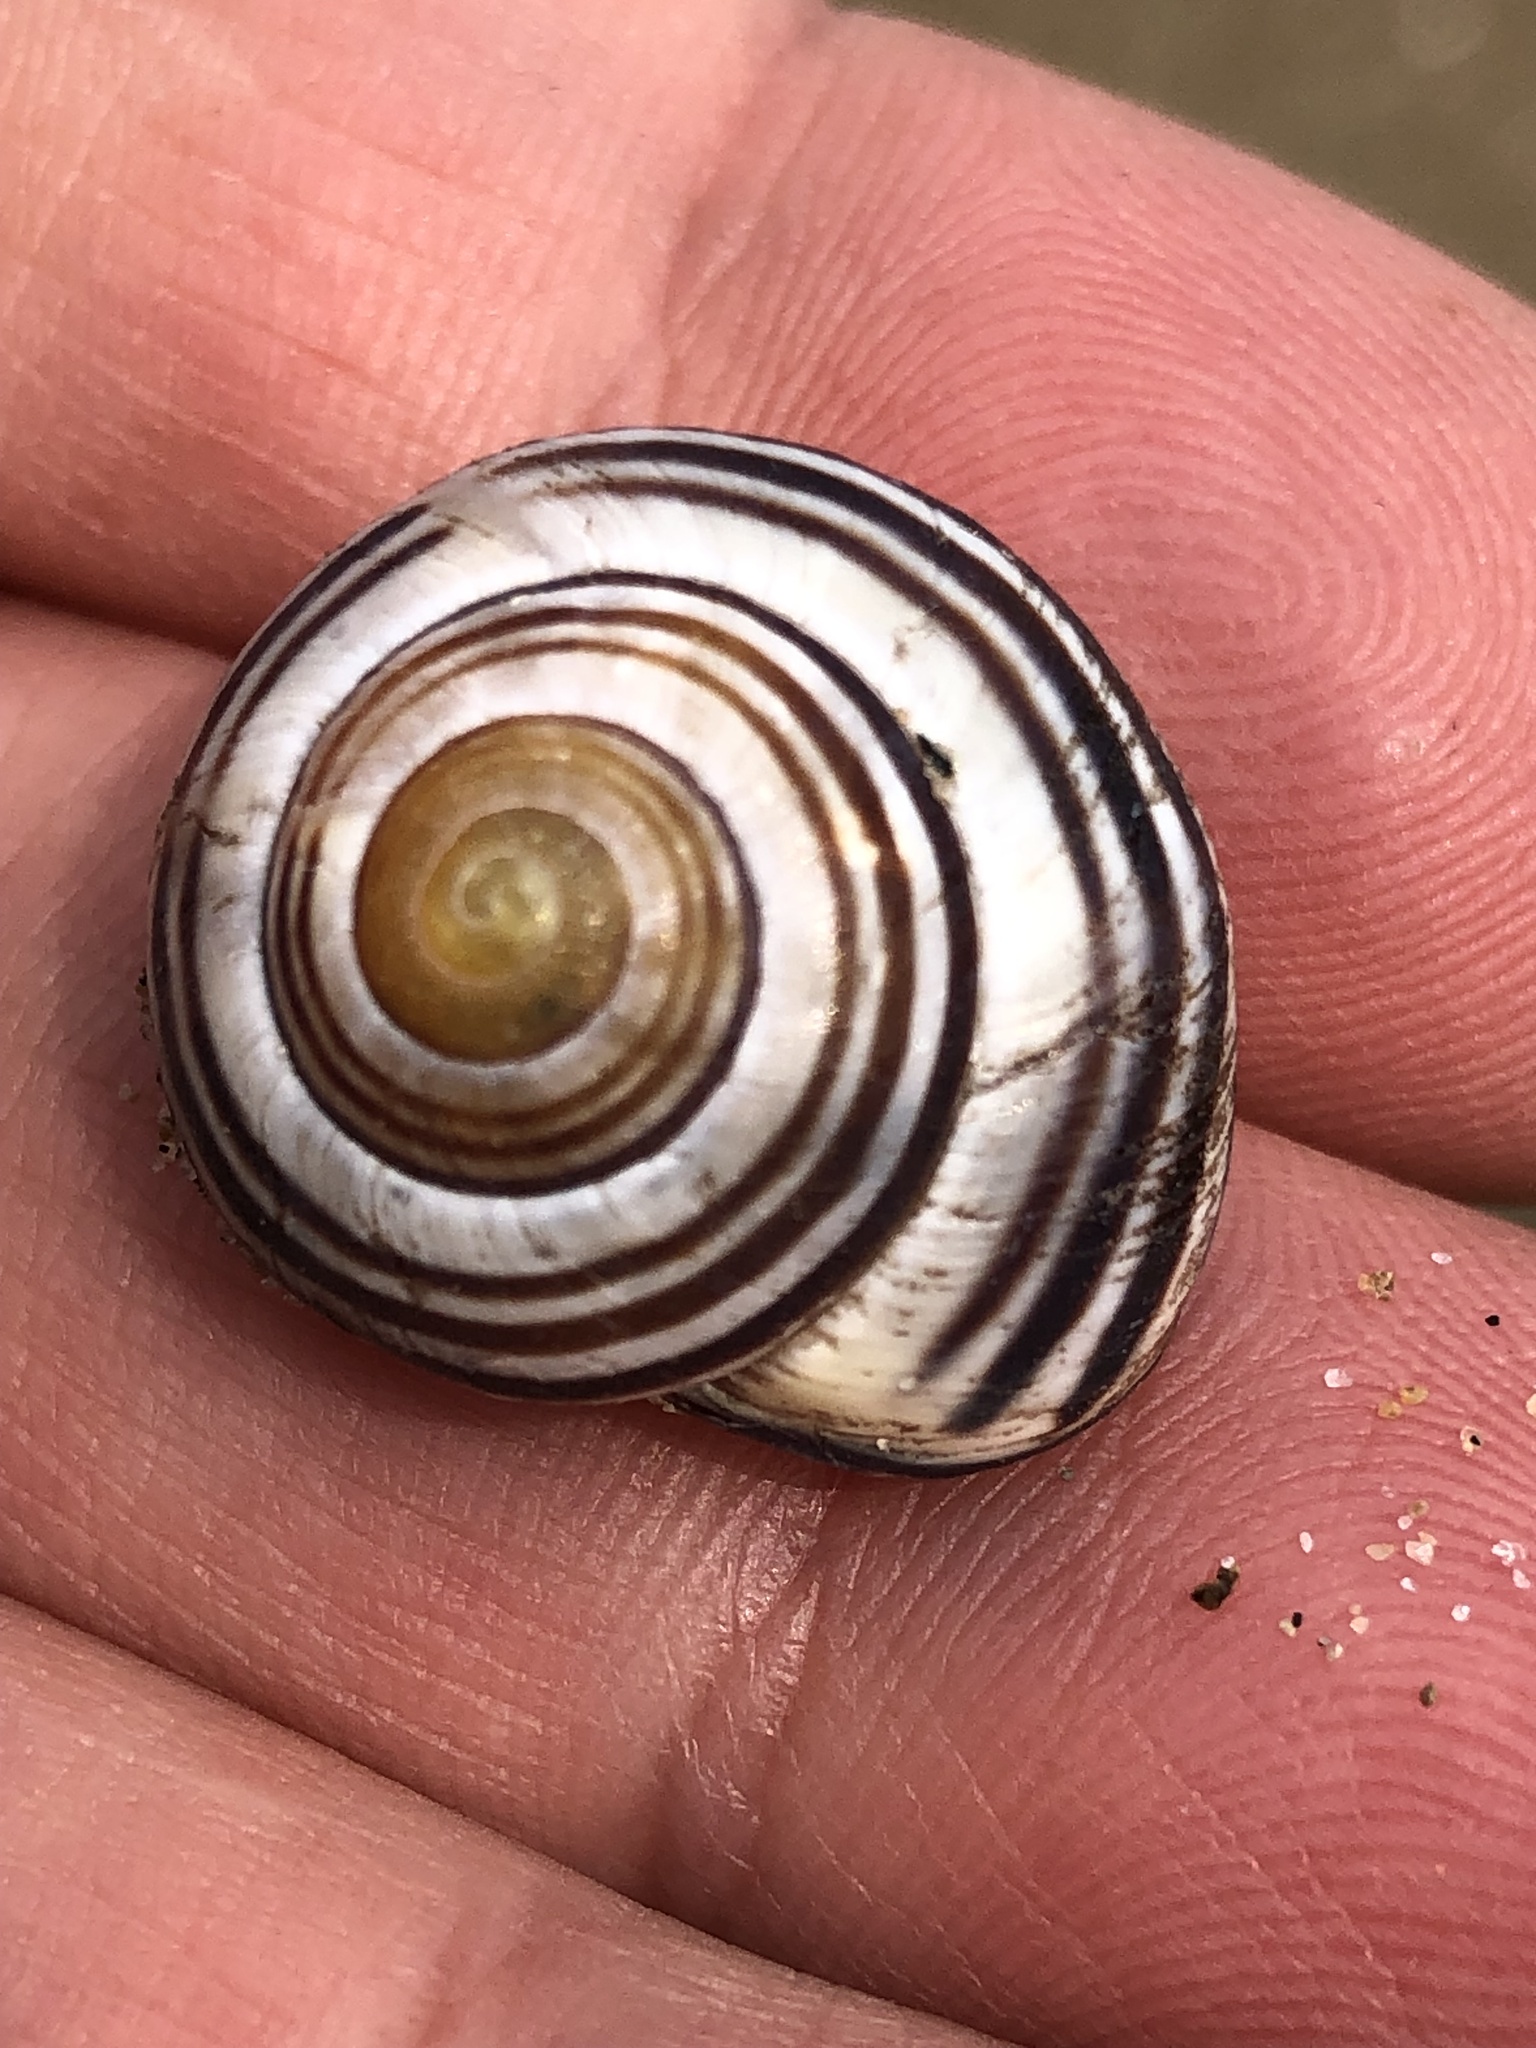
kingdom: Animalia
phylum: Mollusca
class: Gastropoda
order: Stylommatophora
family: Helicidae
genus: Cepaea
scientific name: Cepaea nemoralis
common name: Grovesnail
